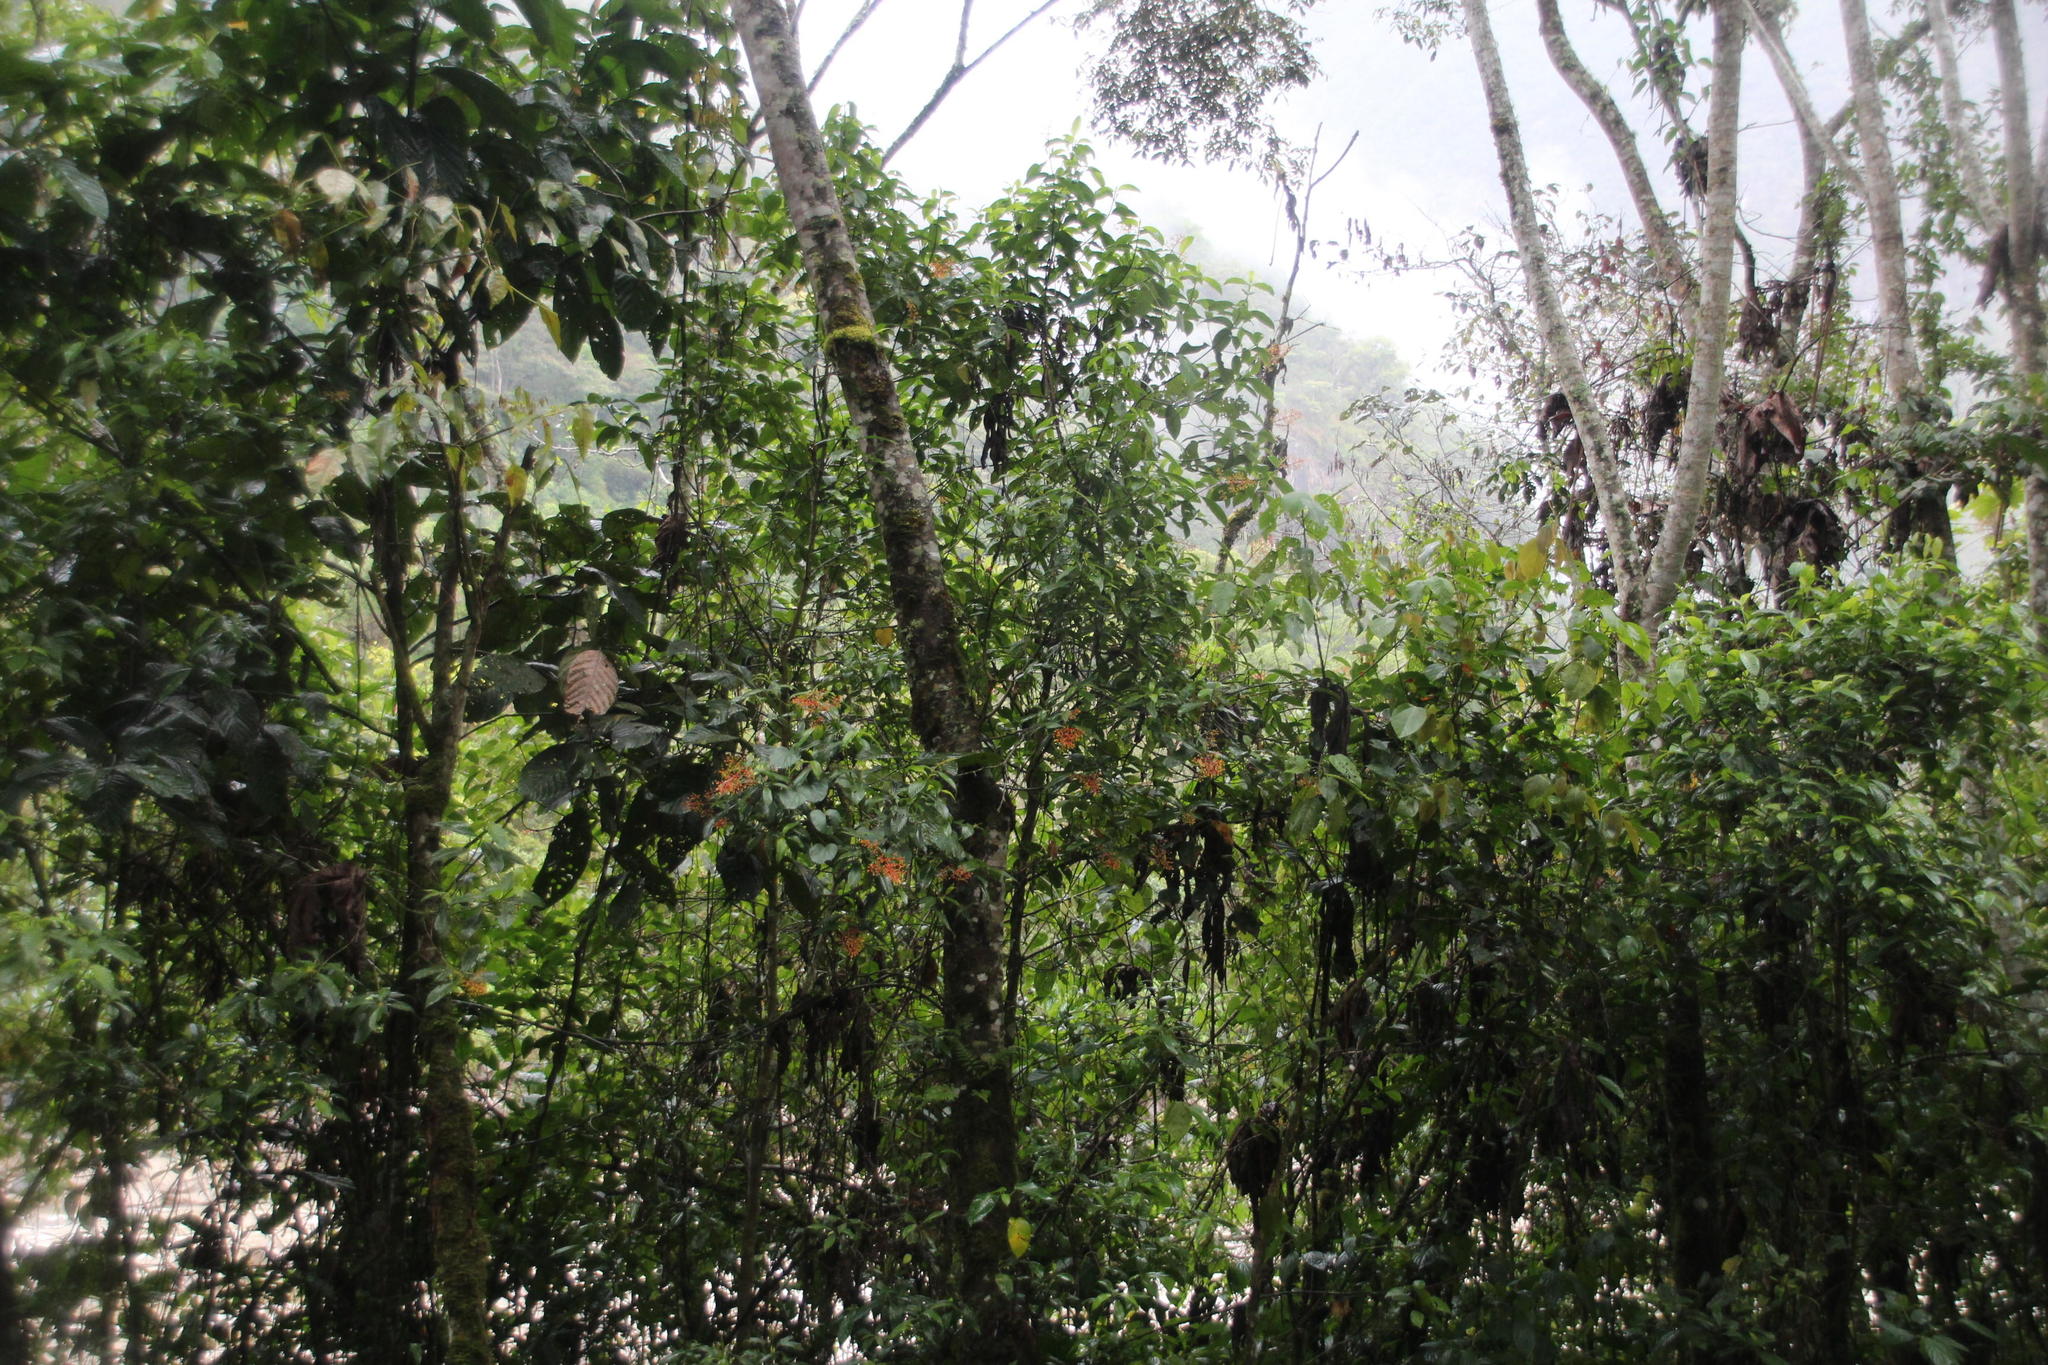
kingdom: Plantae
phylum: Tracheophyta
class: Magnoliopsida
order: Gentianales
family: Rubiaceae
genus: Palicourea
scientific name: Palicourea thyrsiflora
